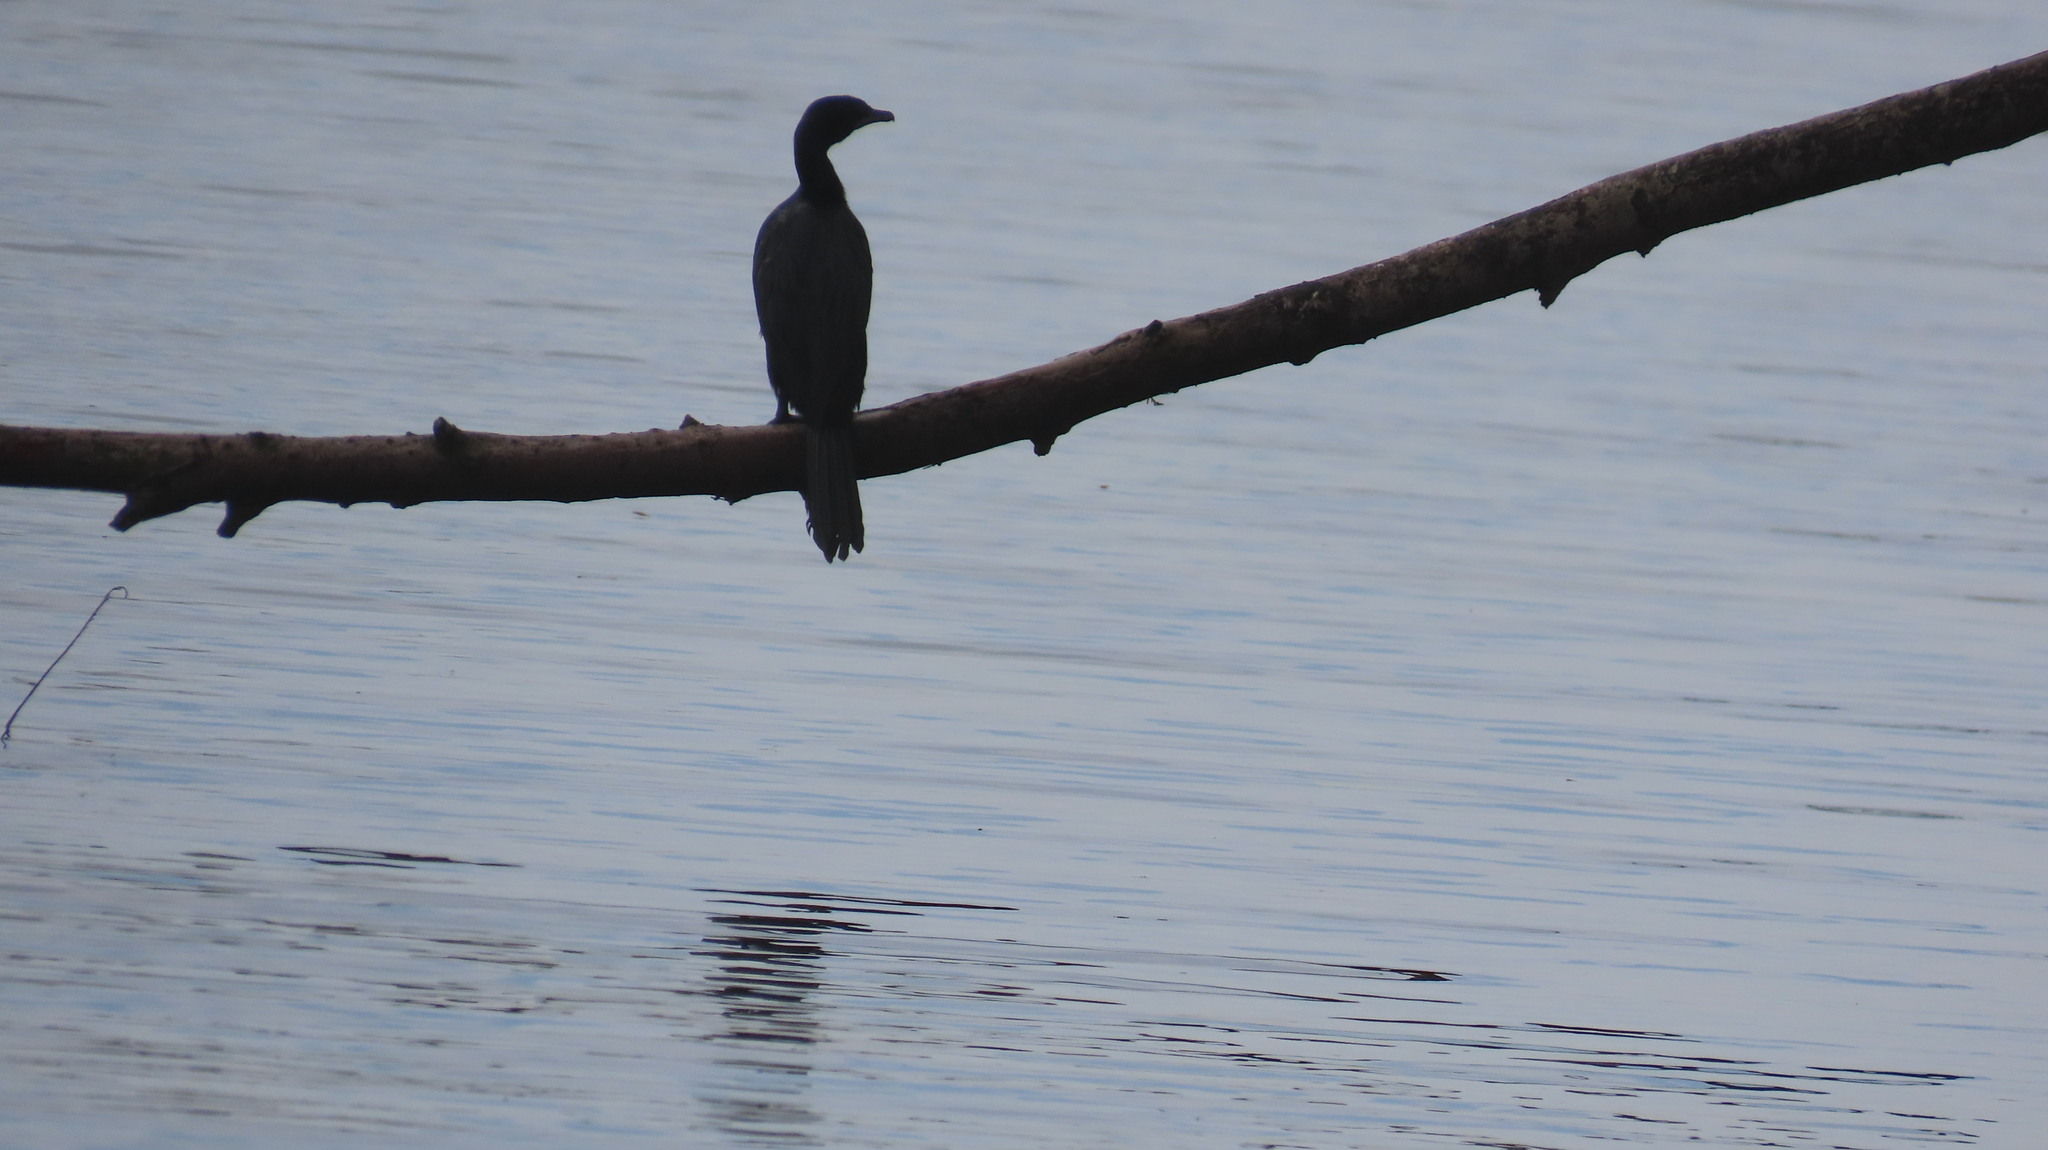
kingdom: Animalia
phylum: Chordata
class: Aves
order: Suliformes
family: Phalacrocoracidae
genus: Microcarbo
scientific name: Microcarbo niger
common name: Little cormorant
